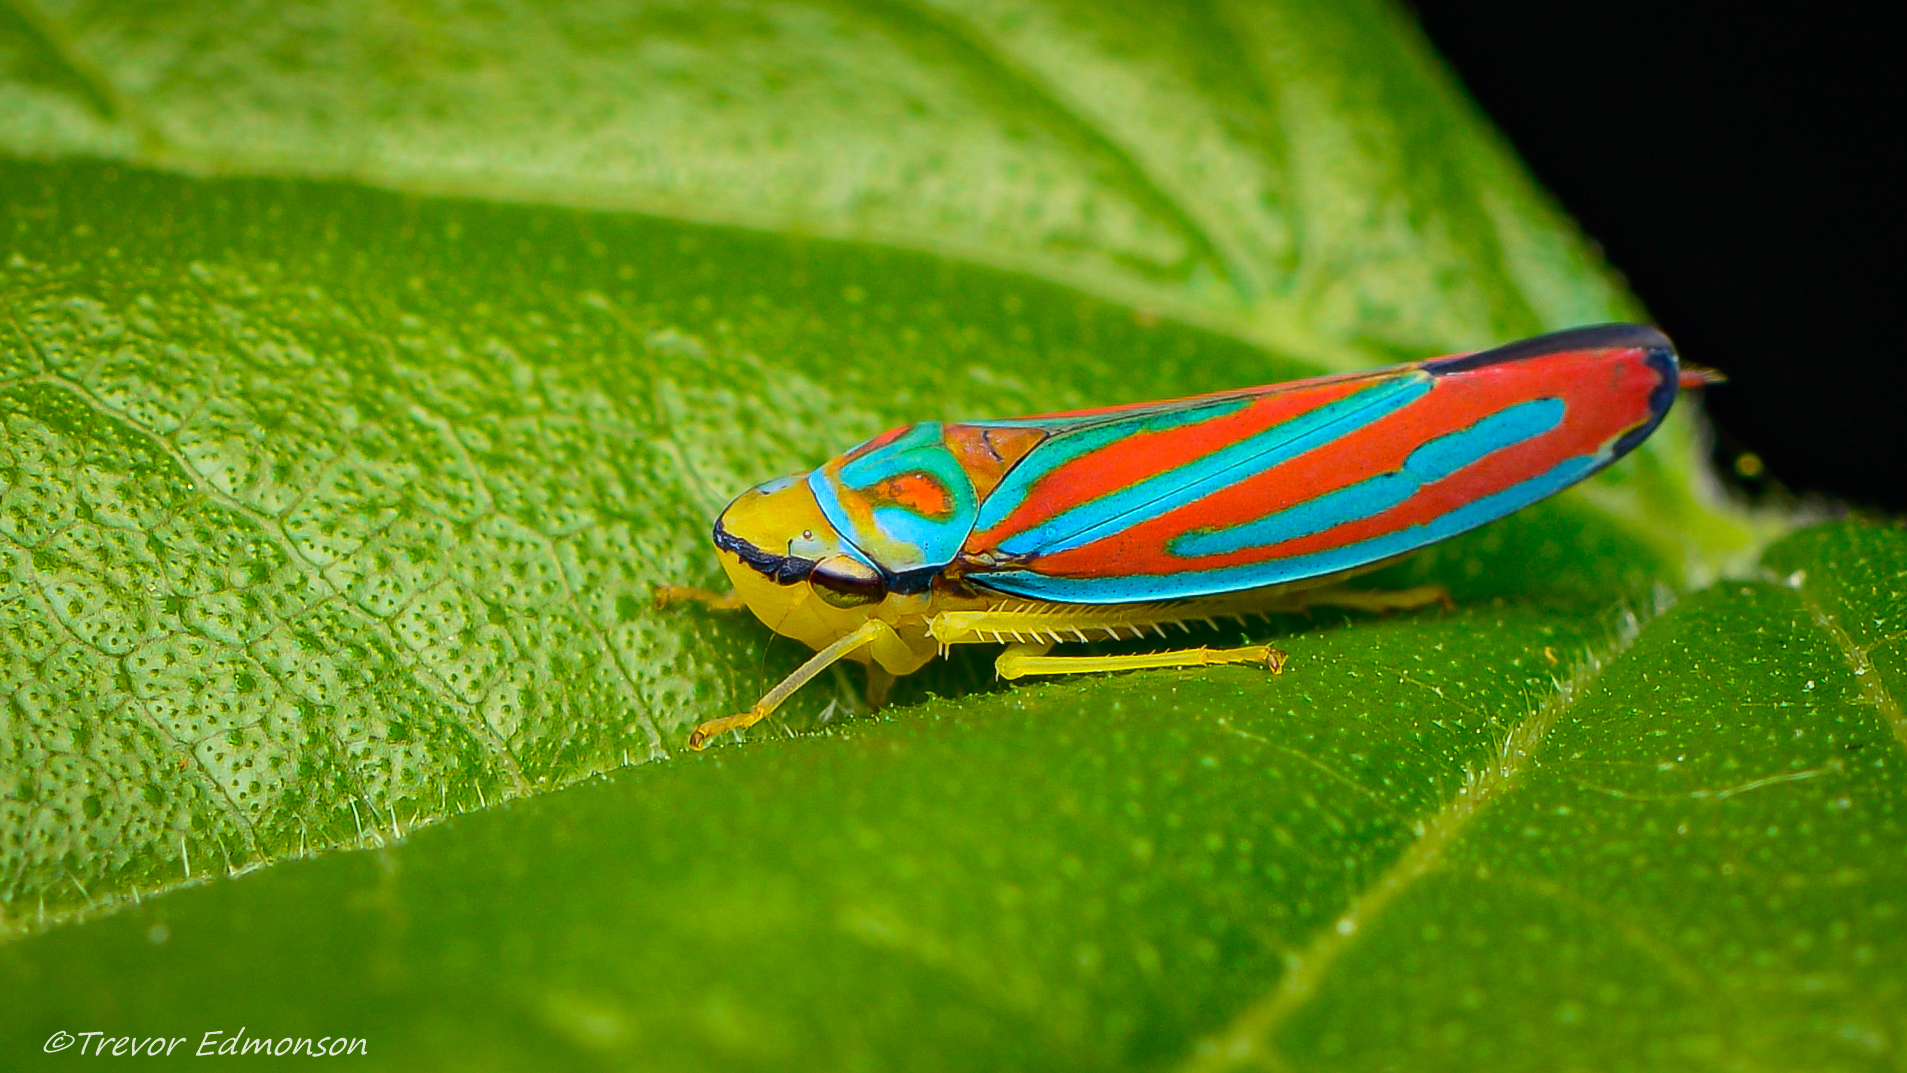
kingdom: Animalia
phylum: Arthropoda
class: Insecta
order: Hemiptera
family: Cicadellidae
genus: Graphocephala
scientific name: Graphocephala coccinea
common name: Candy-striped leafhopper
